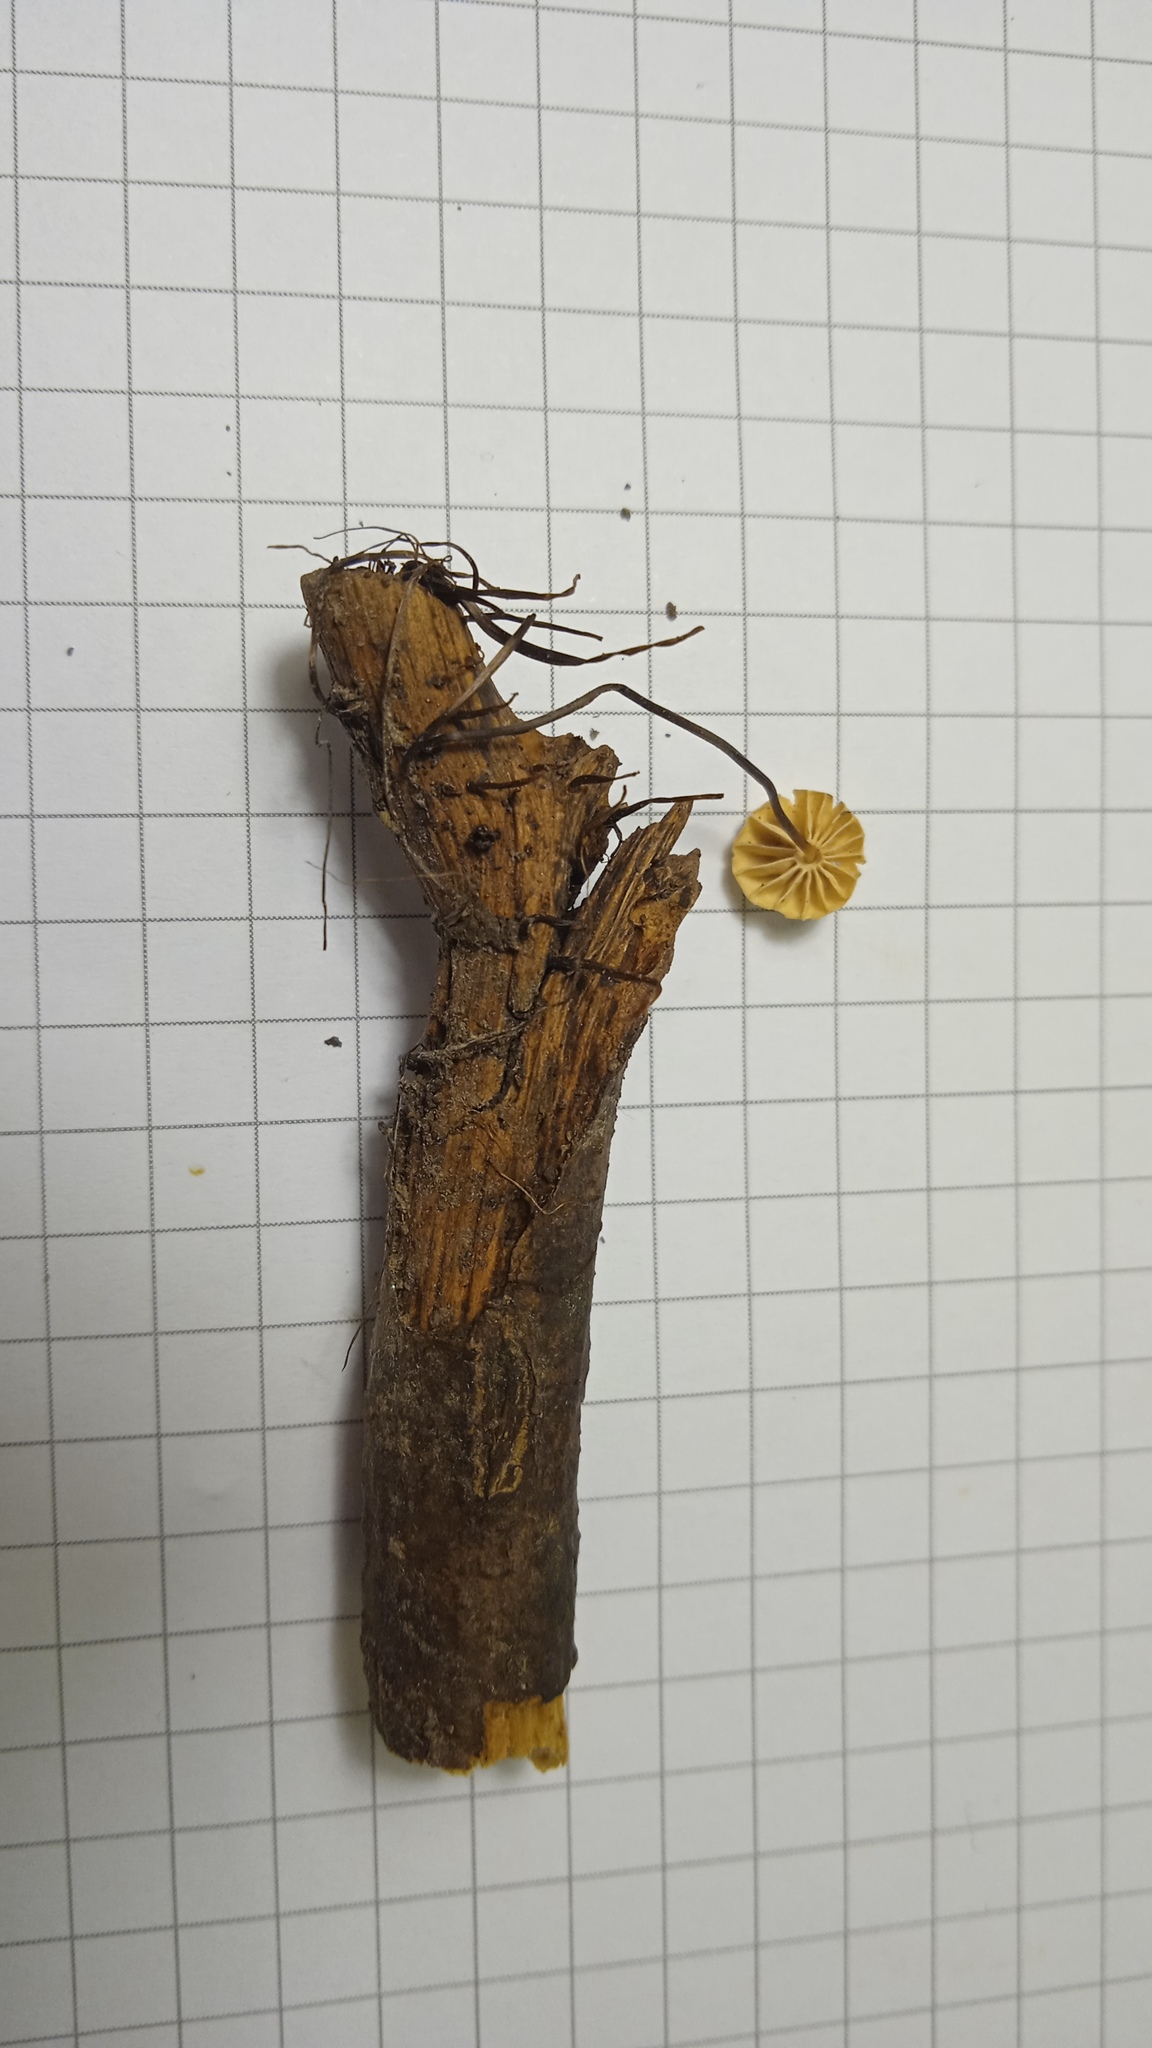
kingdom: Fungi
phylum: Basidiomycota
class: Agaricomycetes
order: Agaricales
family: Marasmiaceae
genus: Marasmius
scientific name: Marasmius rotula
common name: Collared parachute
